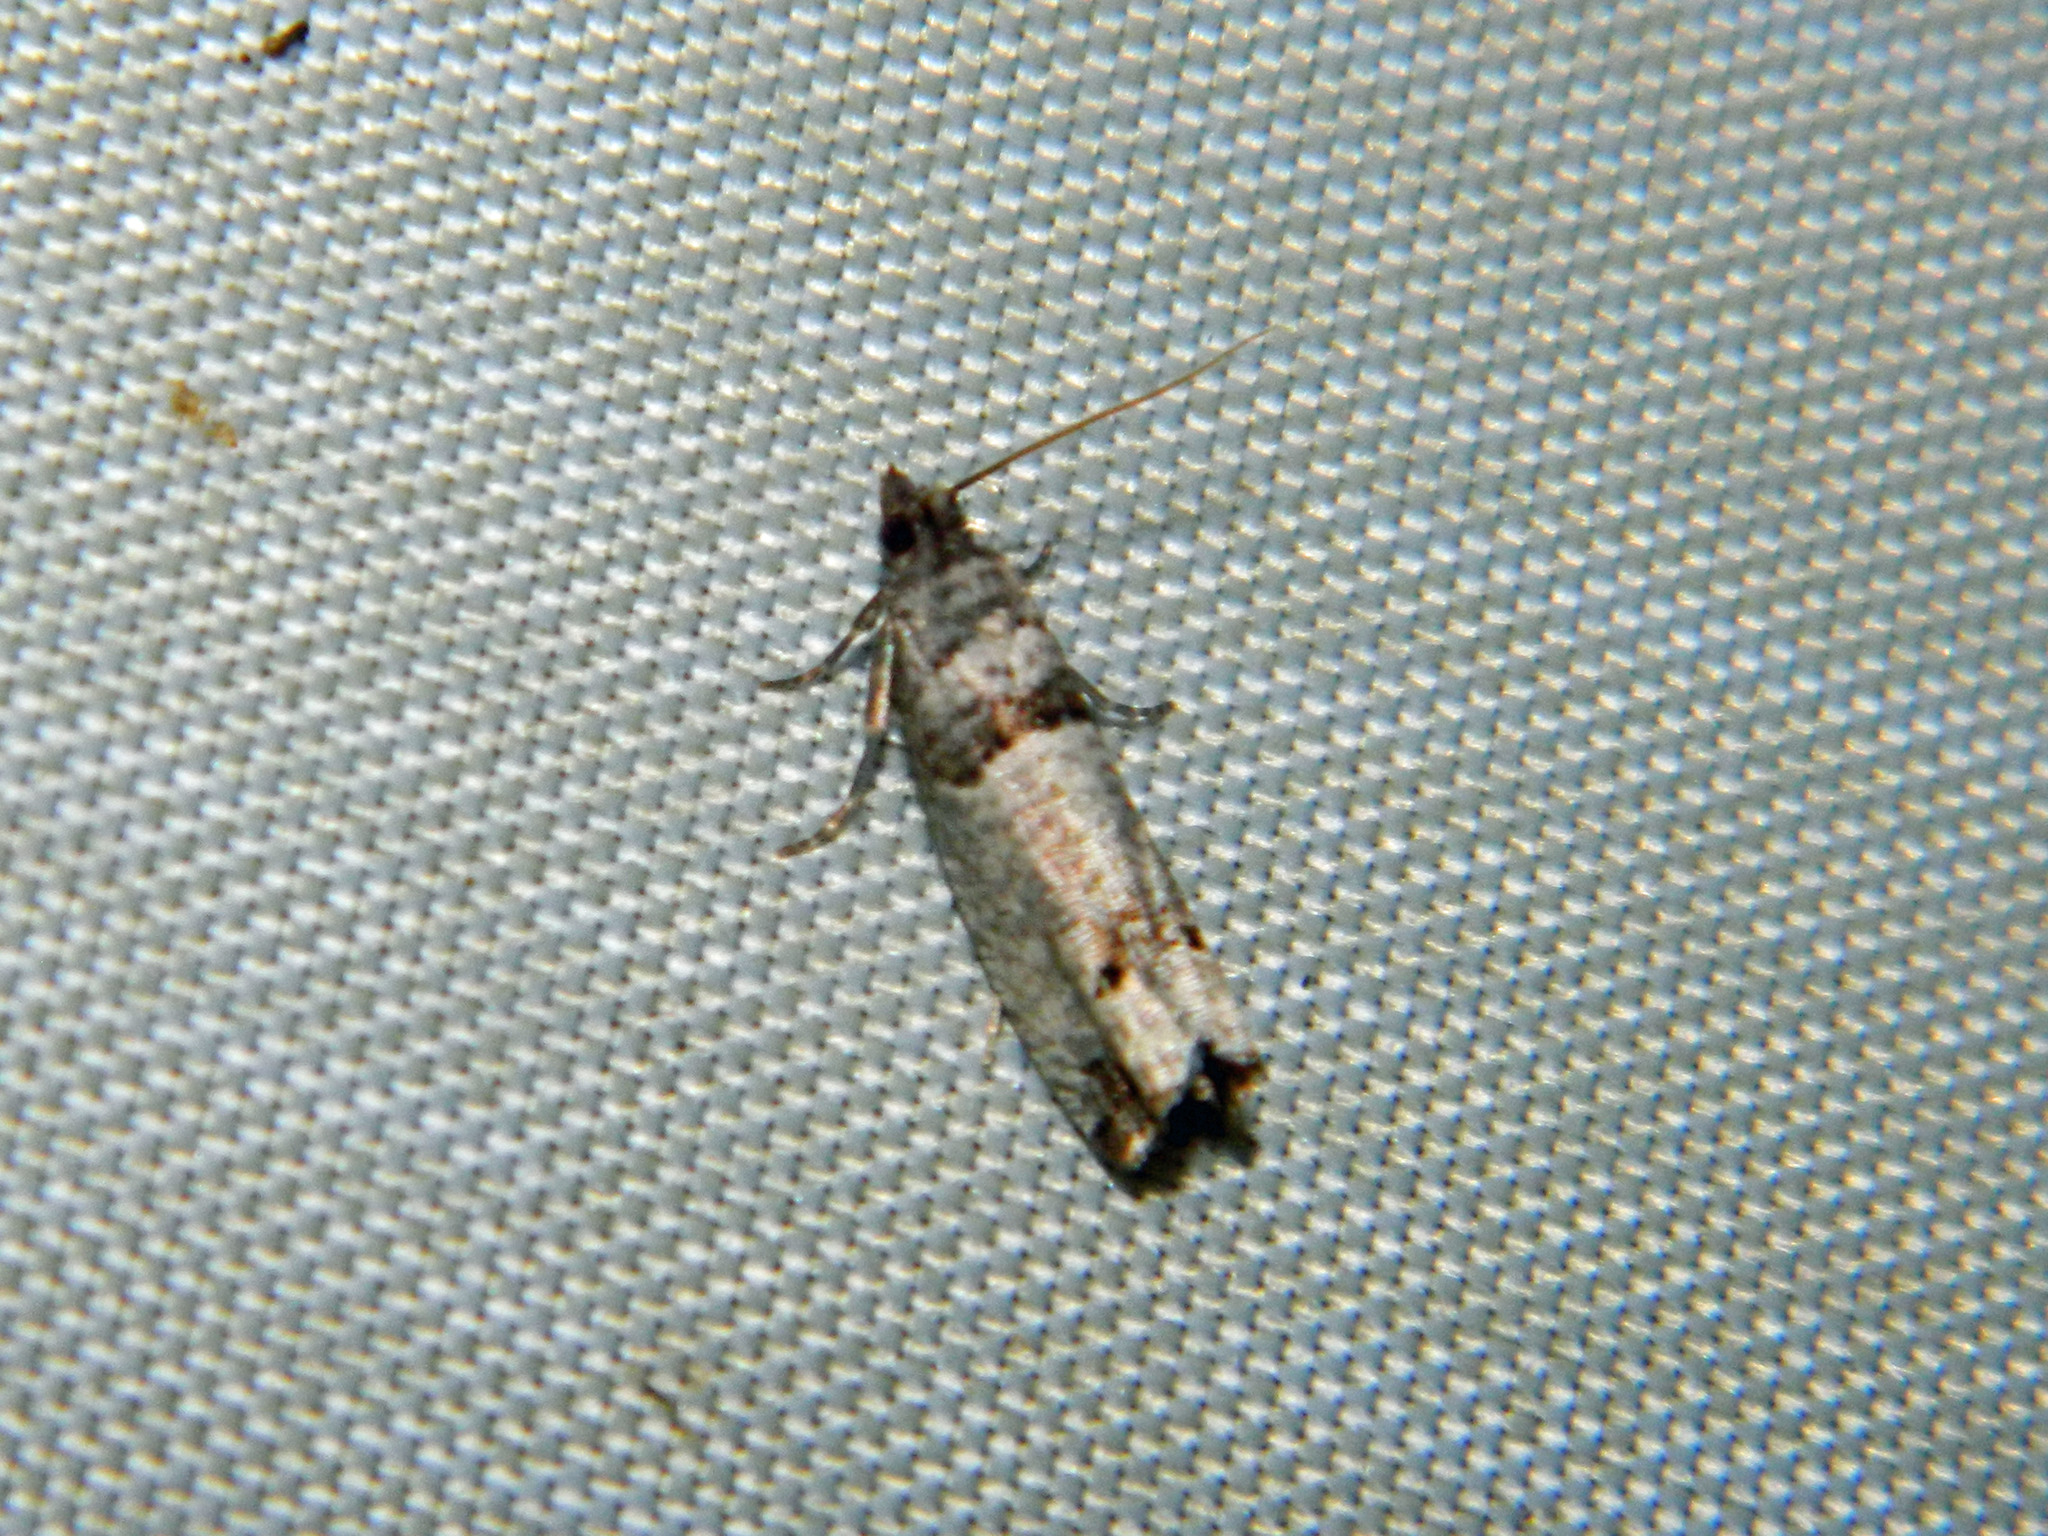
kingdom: Animalia
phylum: Arthropoda
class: Insecta
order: Lepidoptera
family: Tortricidae
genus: Notocelia
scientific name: Notocelia culminana
